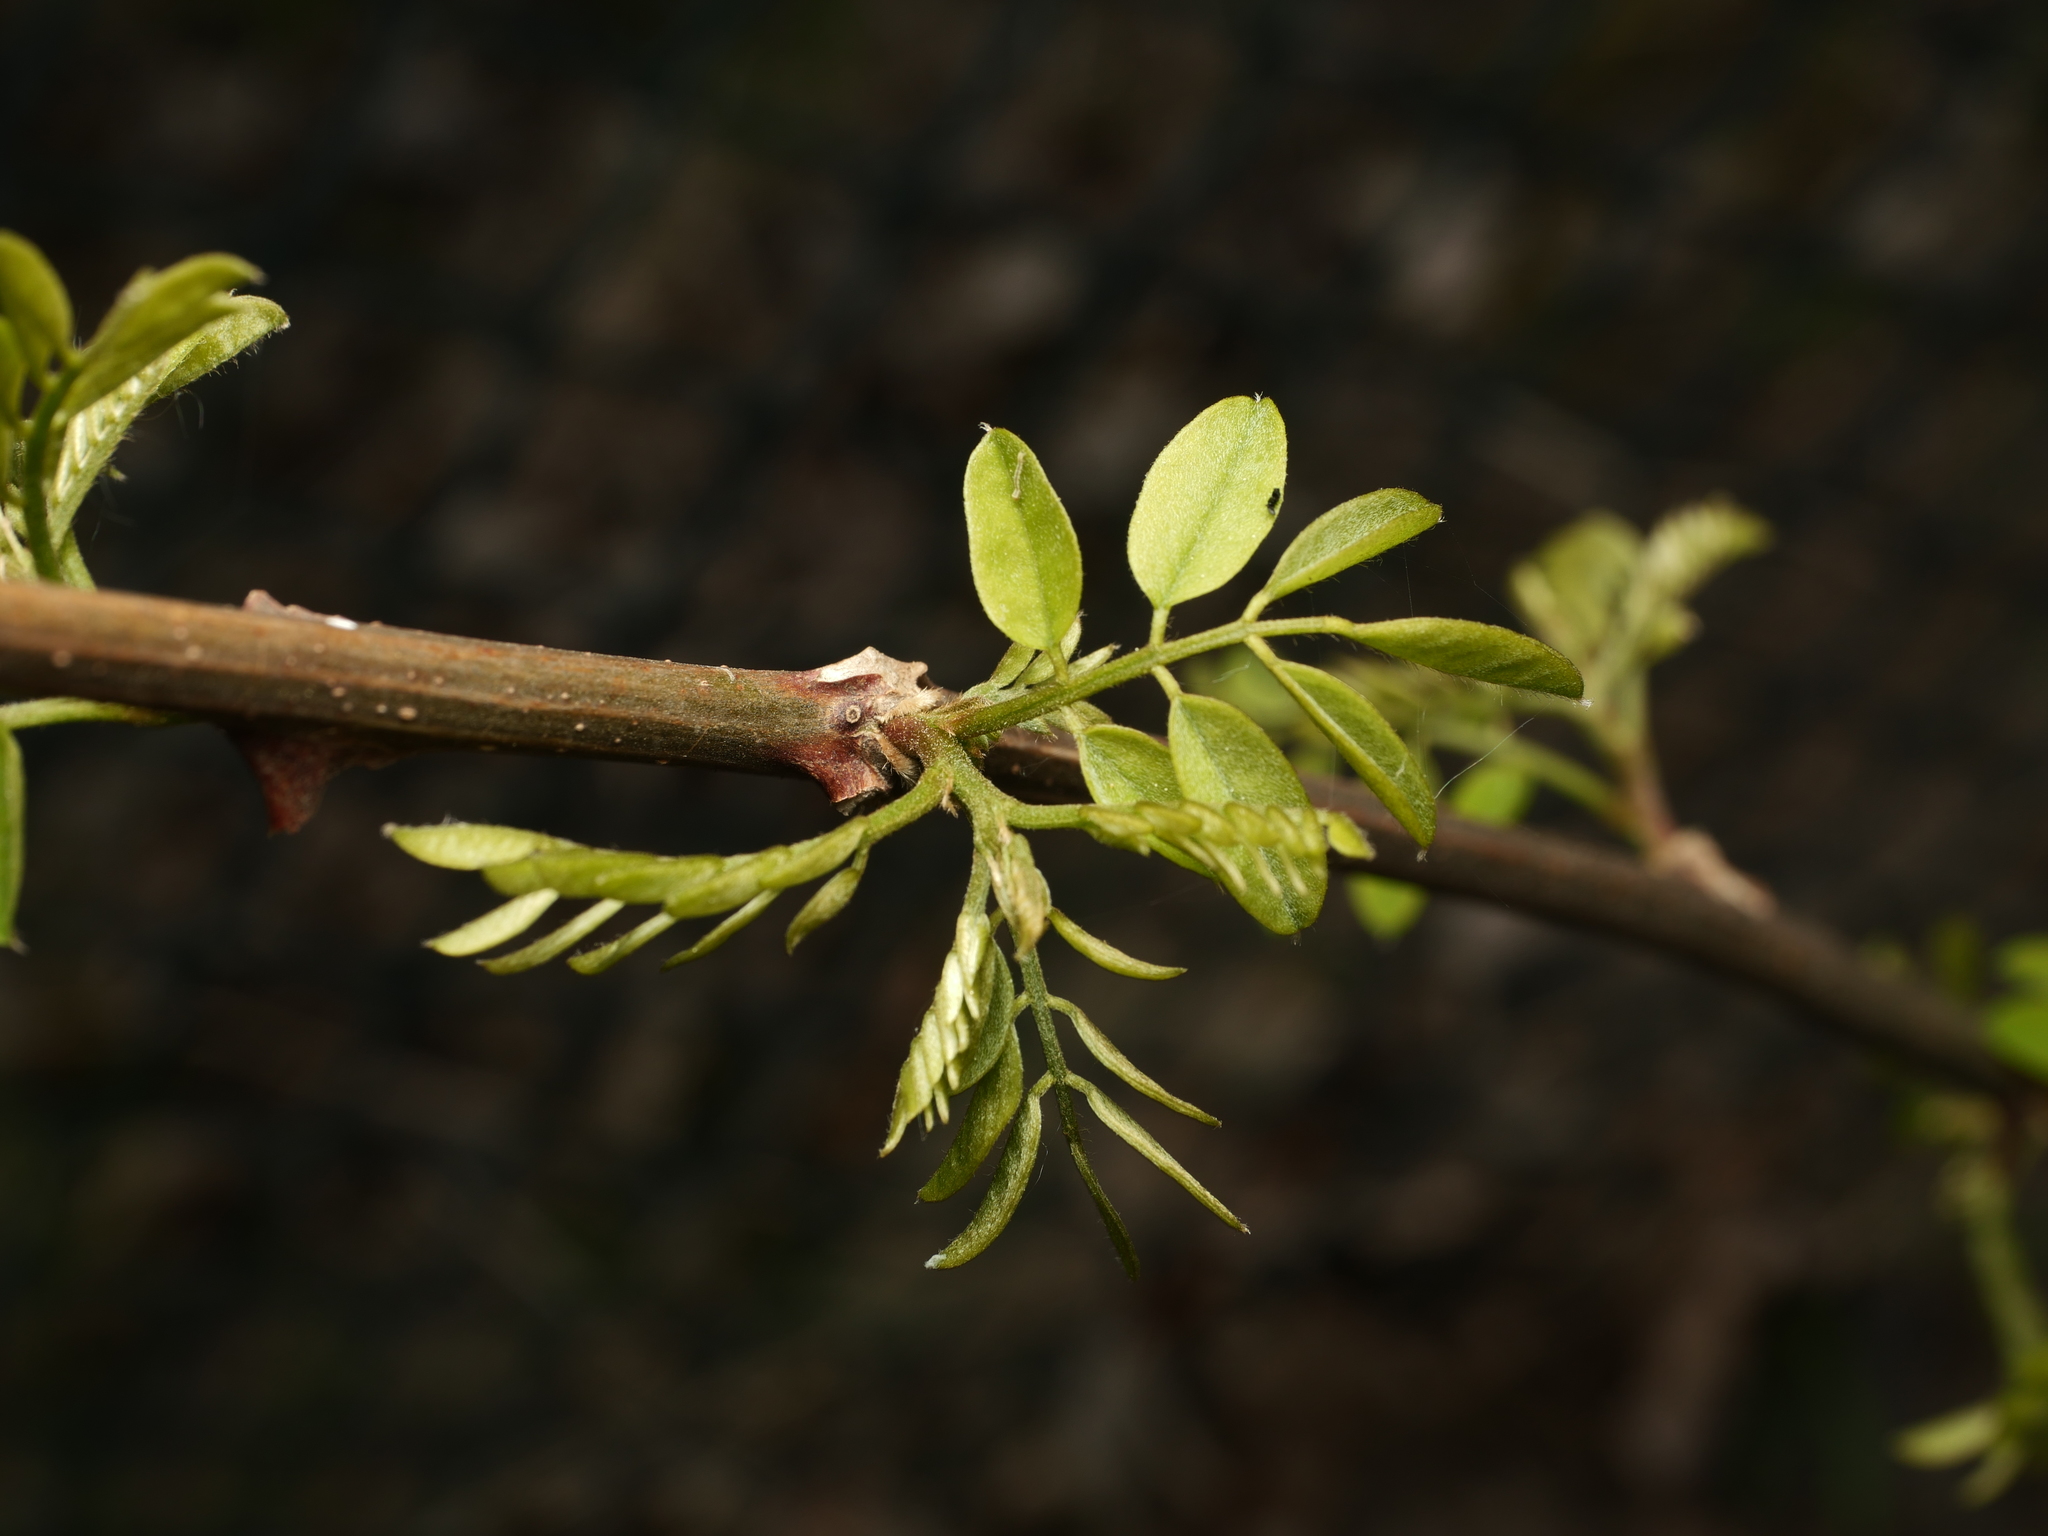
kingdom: Plantae
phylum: Tracheophyta
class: Magnoliopsida
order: Fabales
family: Fabaceae
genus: Robinia
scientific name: Robinia pseudoacacia
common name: Black locust
